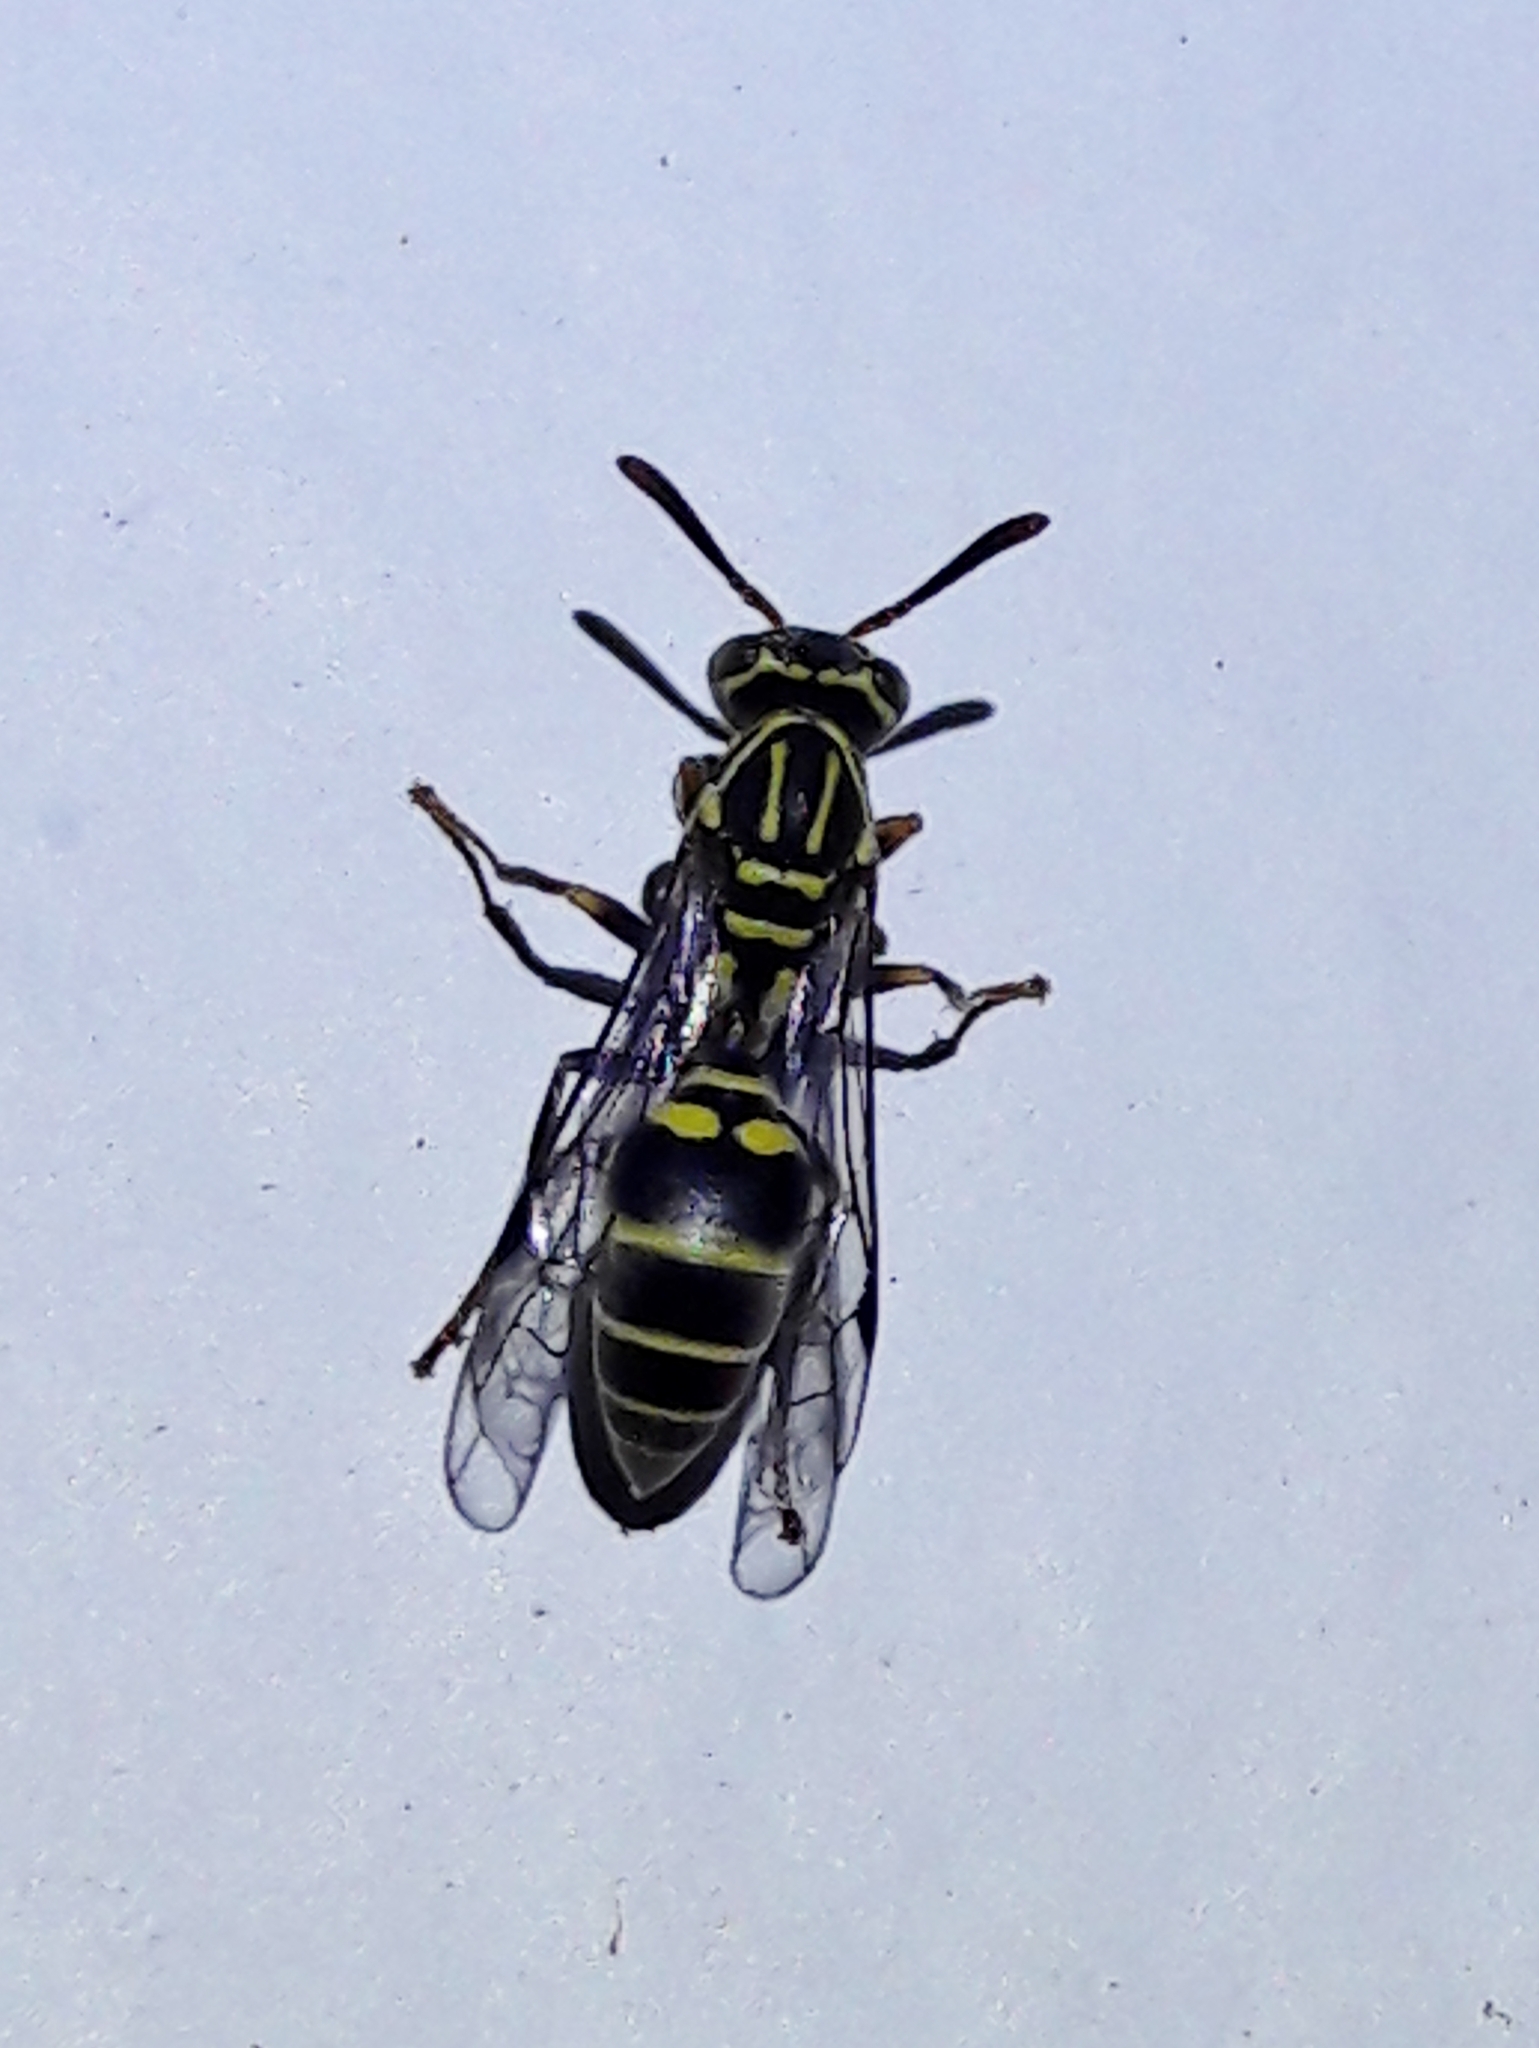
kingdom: Animalia
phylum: Arthropoda
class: Insecta
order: Hymenoptera
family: Vespidae
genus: Protopolybia
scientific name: Protopolybia exigua
